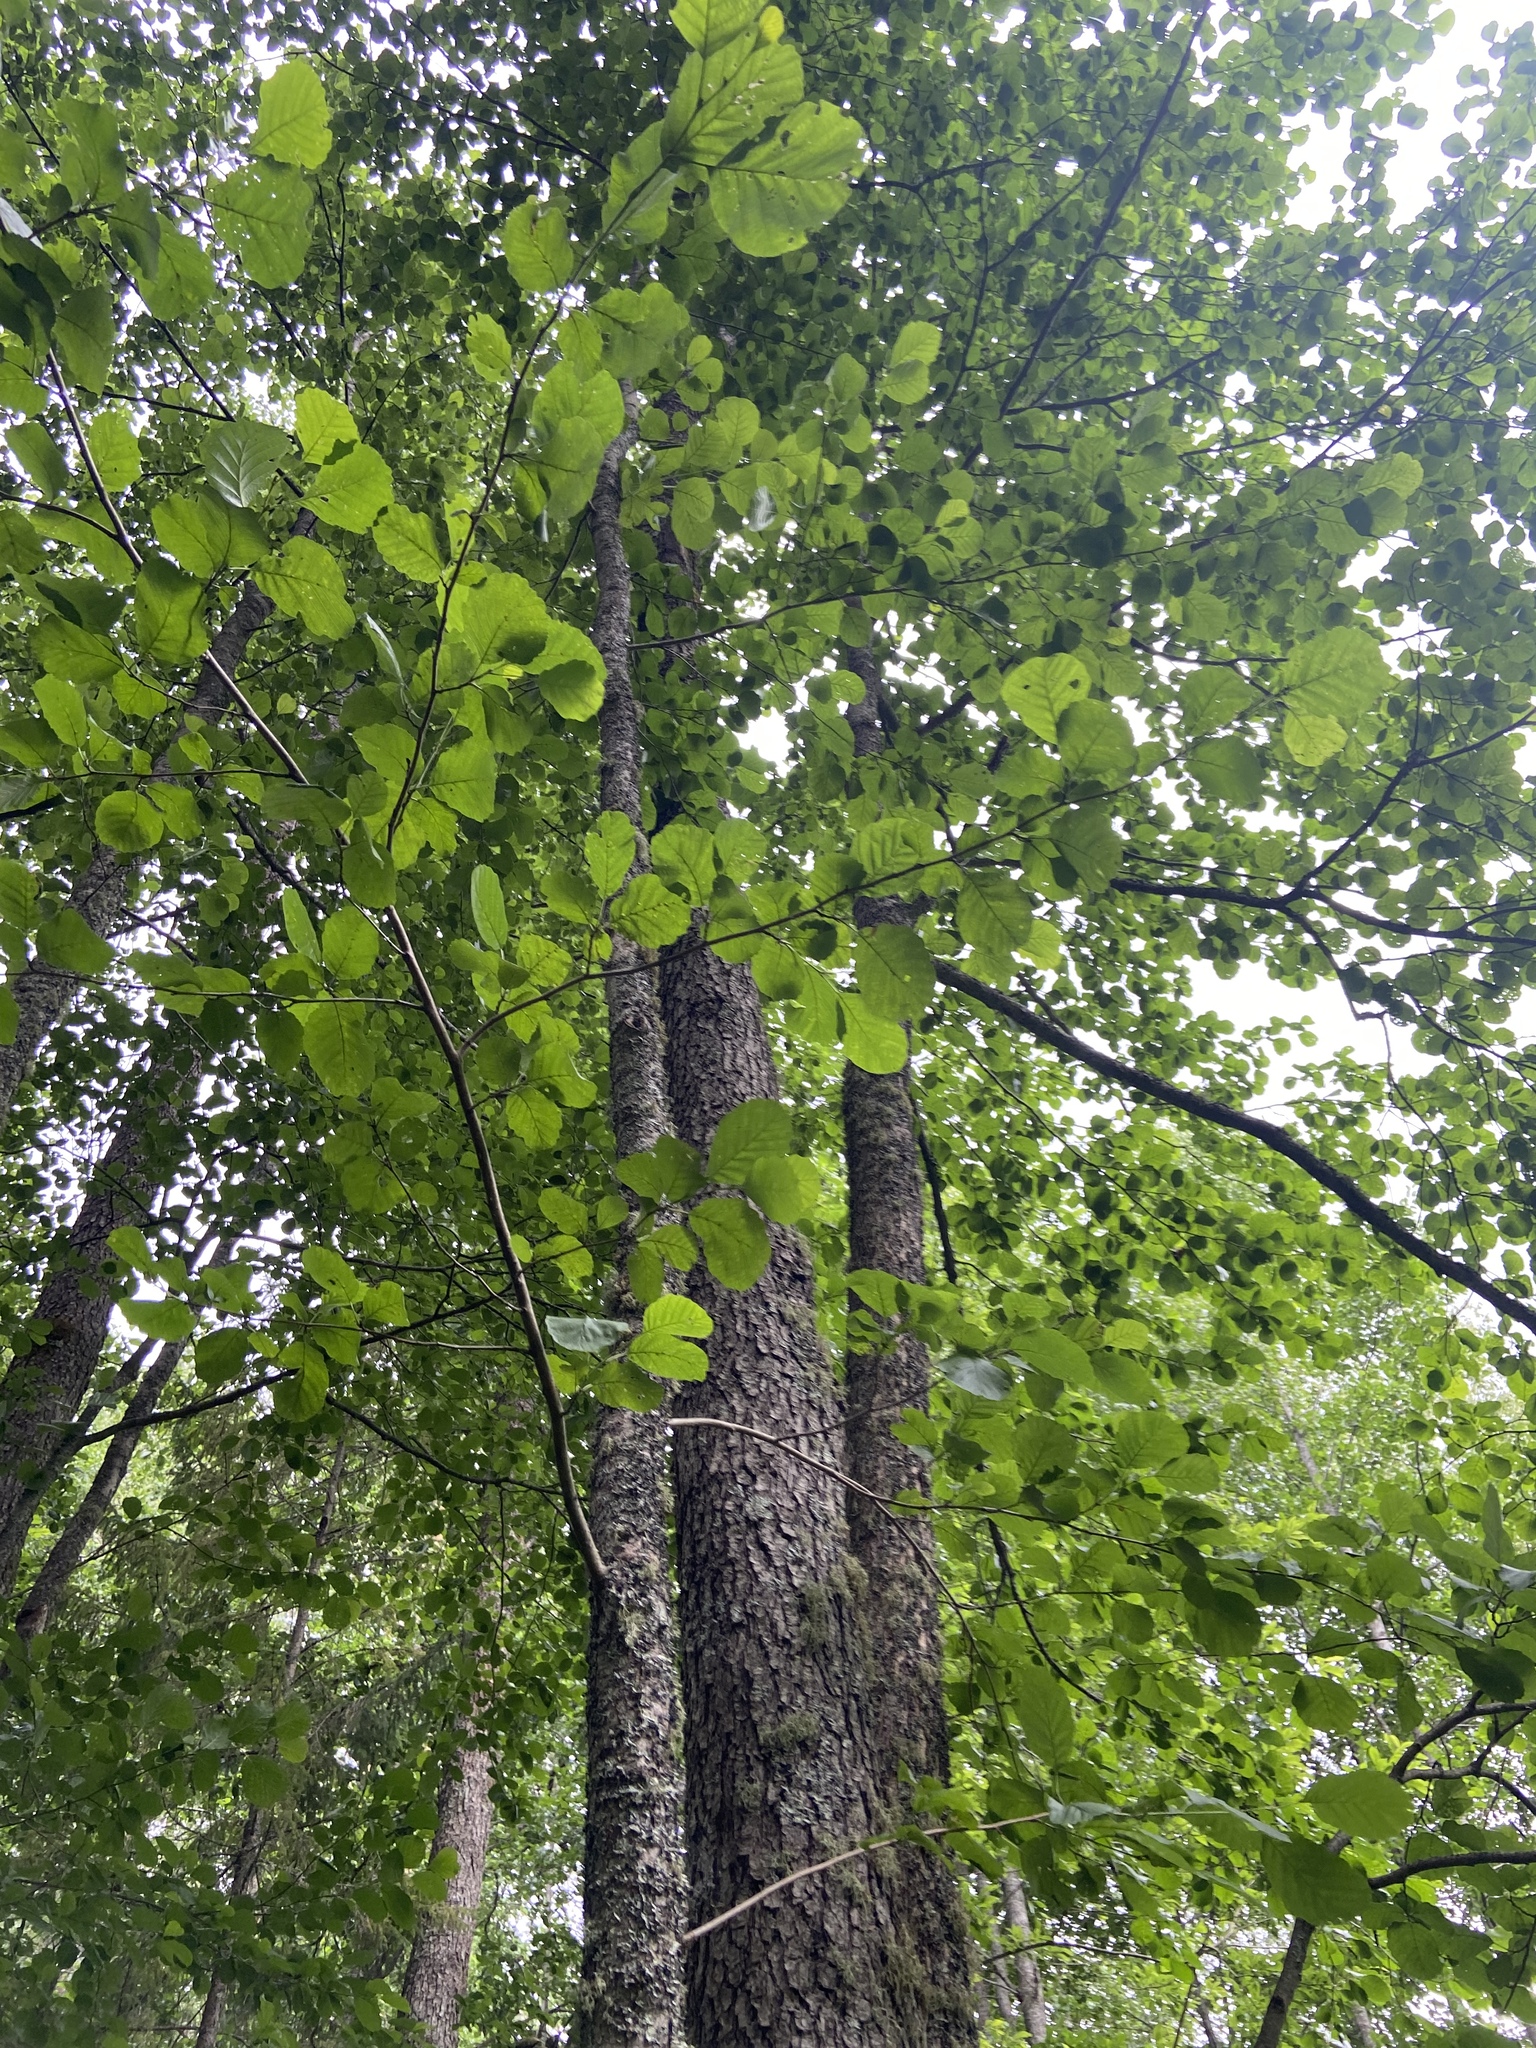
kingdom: Plantae
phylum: Tracheophyta
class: Magnoliopsida
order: Fagales
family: Betulaceae
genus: Alnus
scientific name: Alnus glutinosa
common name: Black alder
